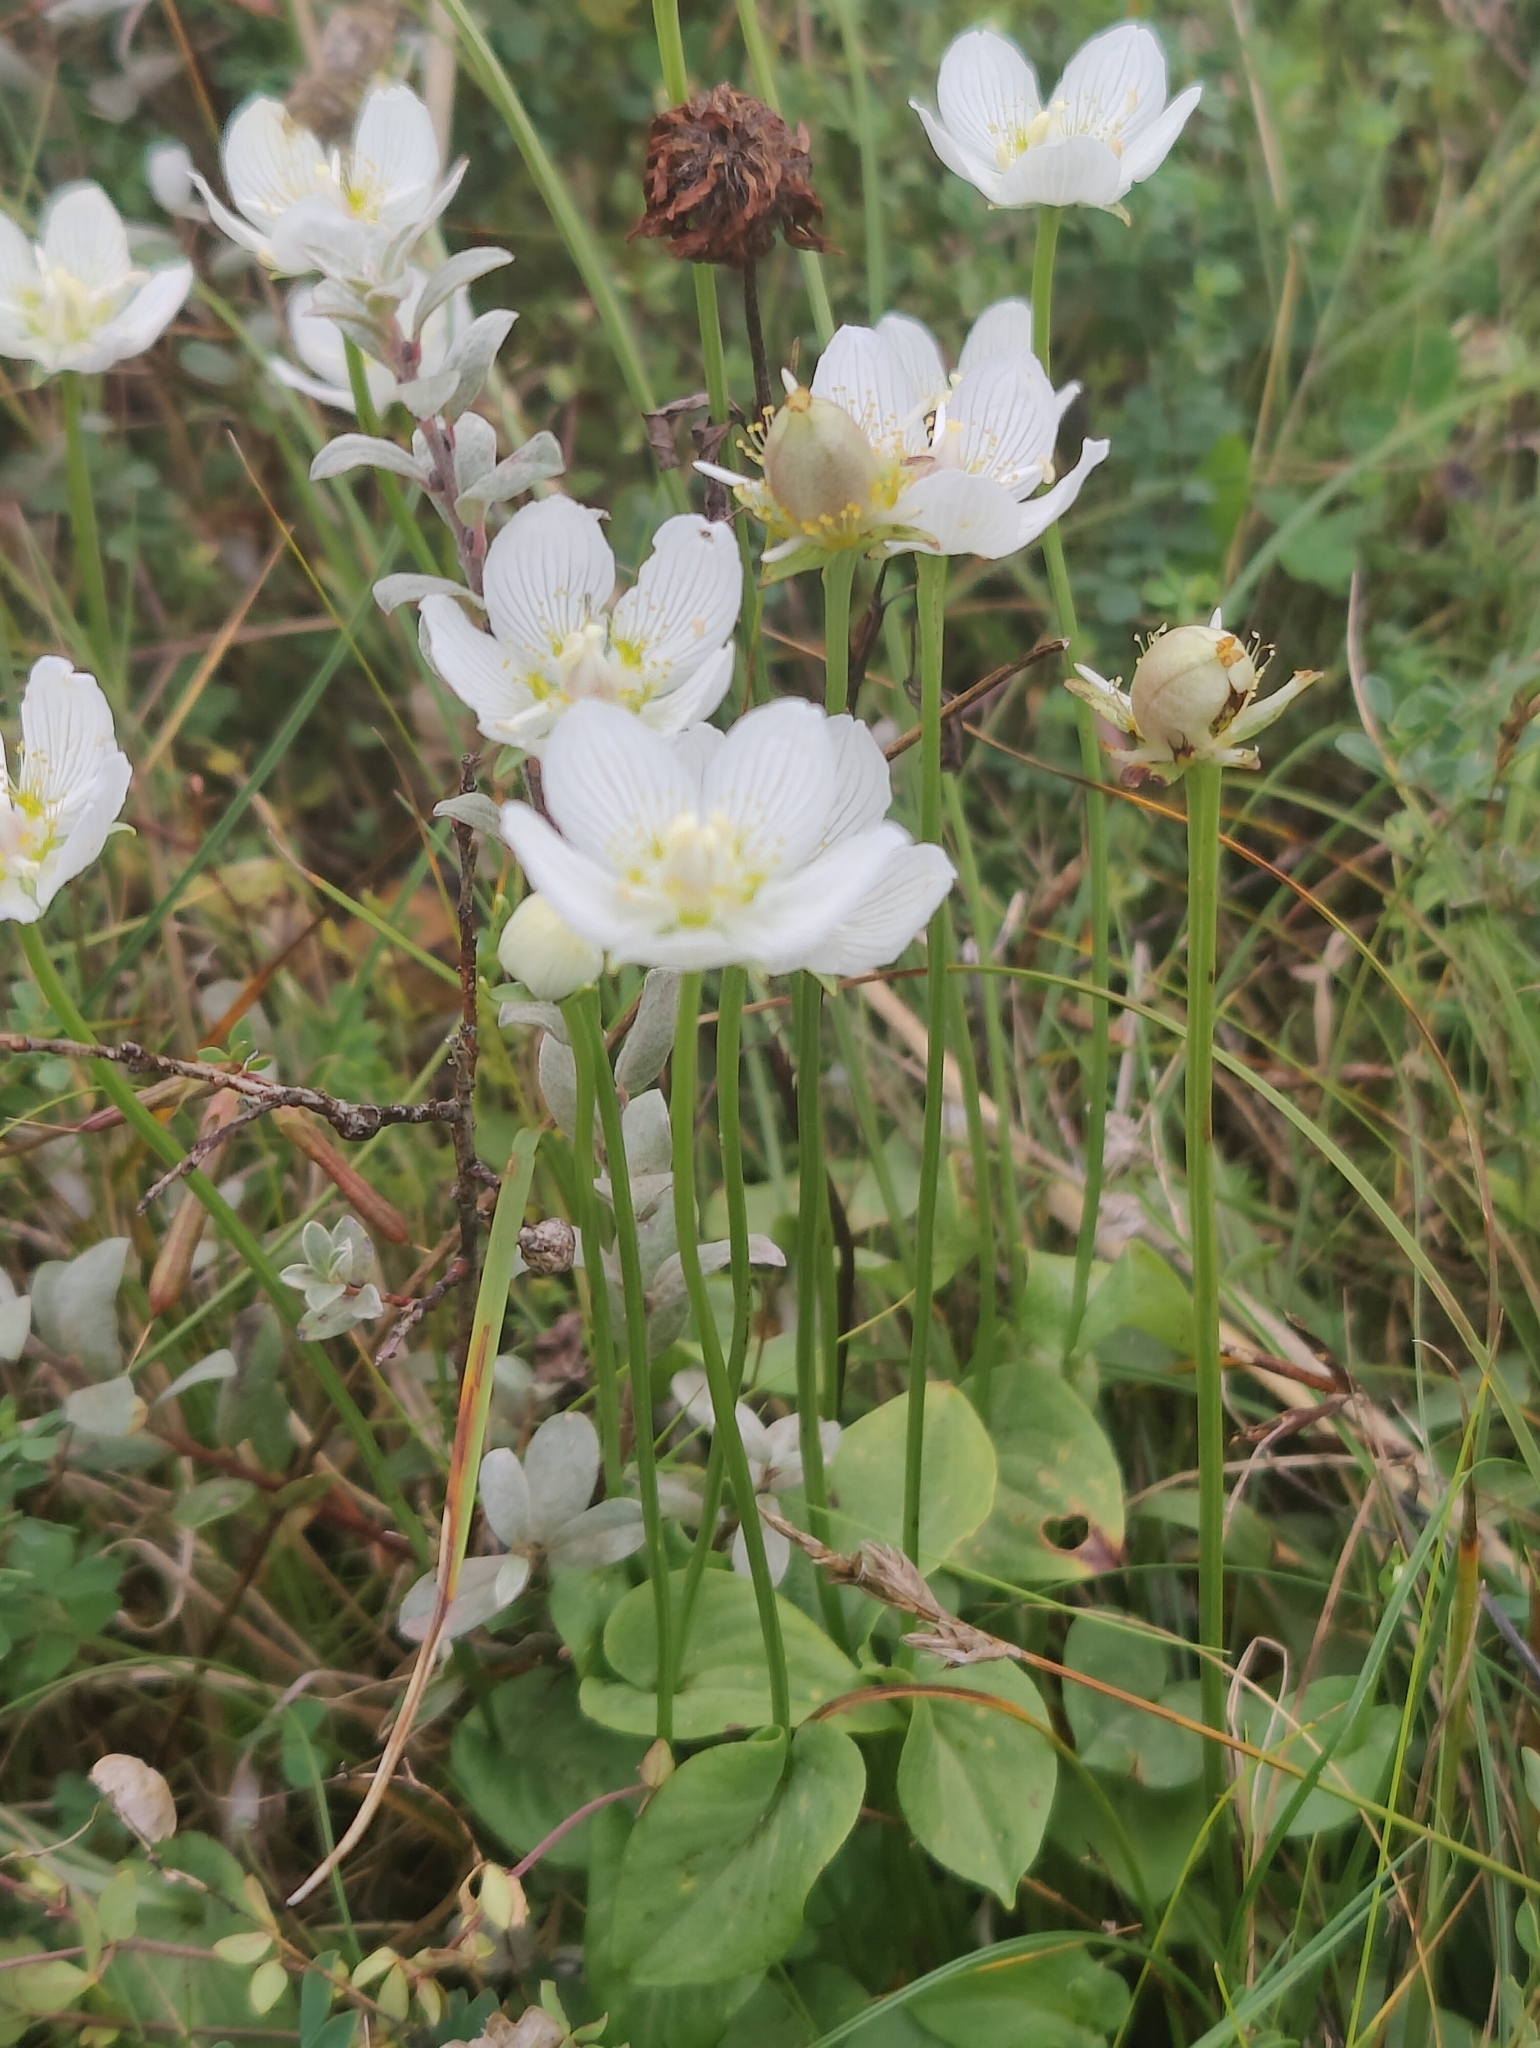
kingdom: Plantae
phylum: Tracheophyta
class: Magnoliopsida
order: Celastrales
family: Parnassiaceae
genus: Parnassia
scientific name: Parnassia palustris
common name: Grass-of-parnassus
